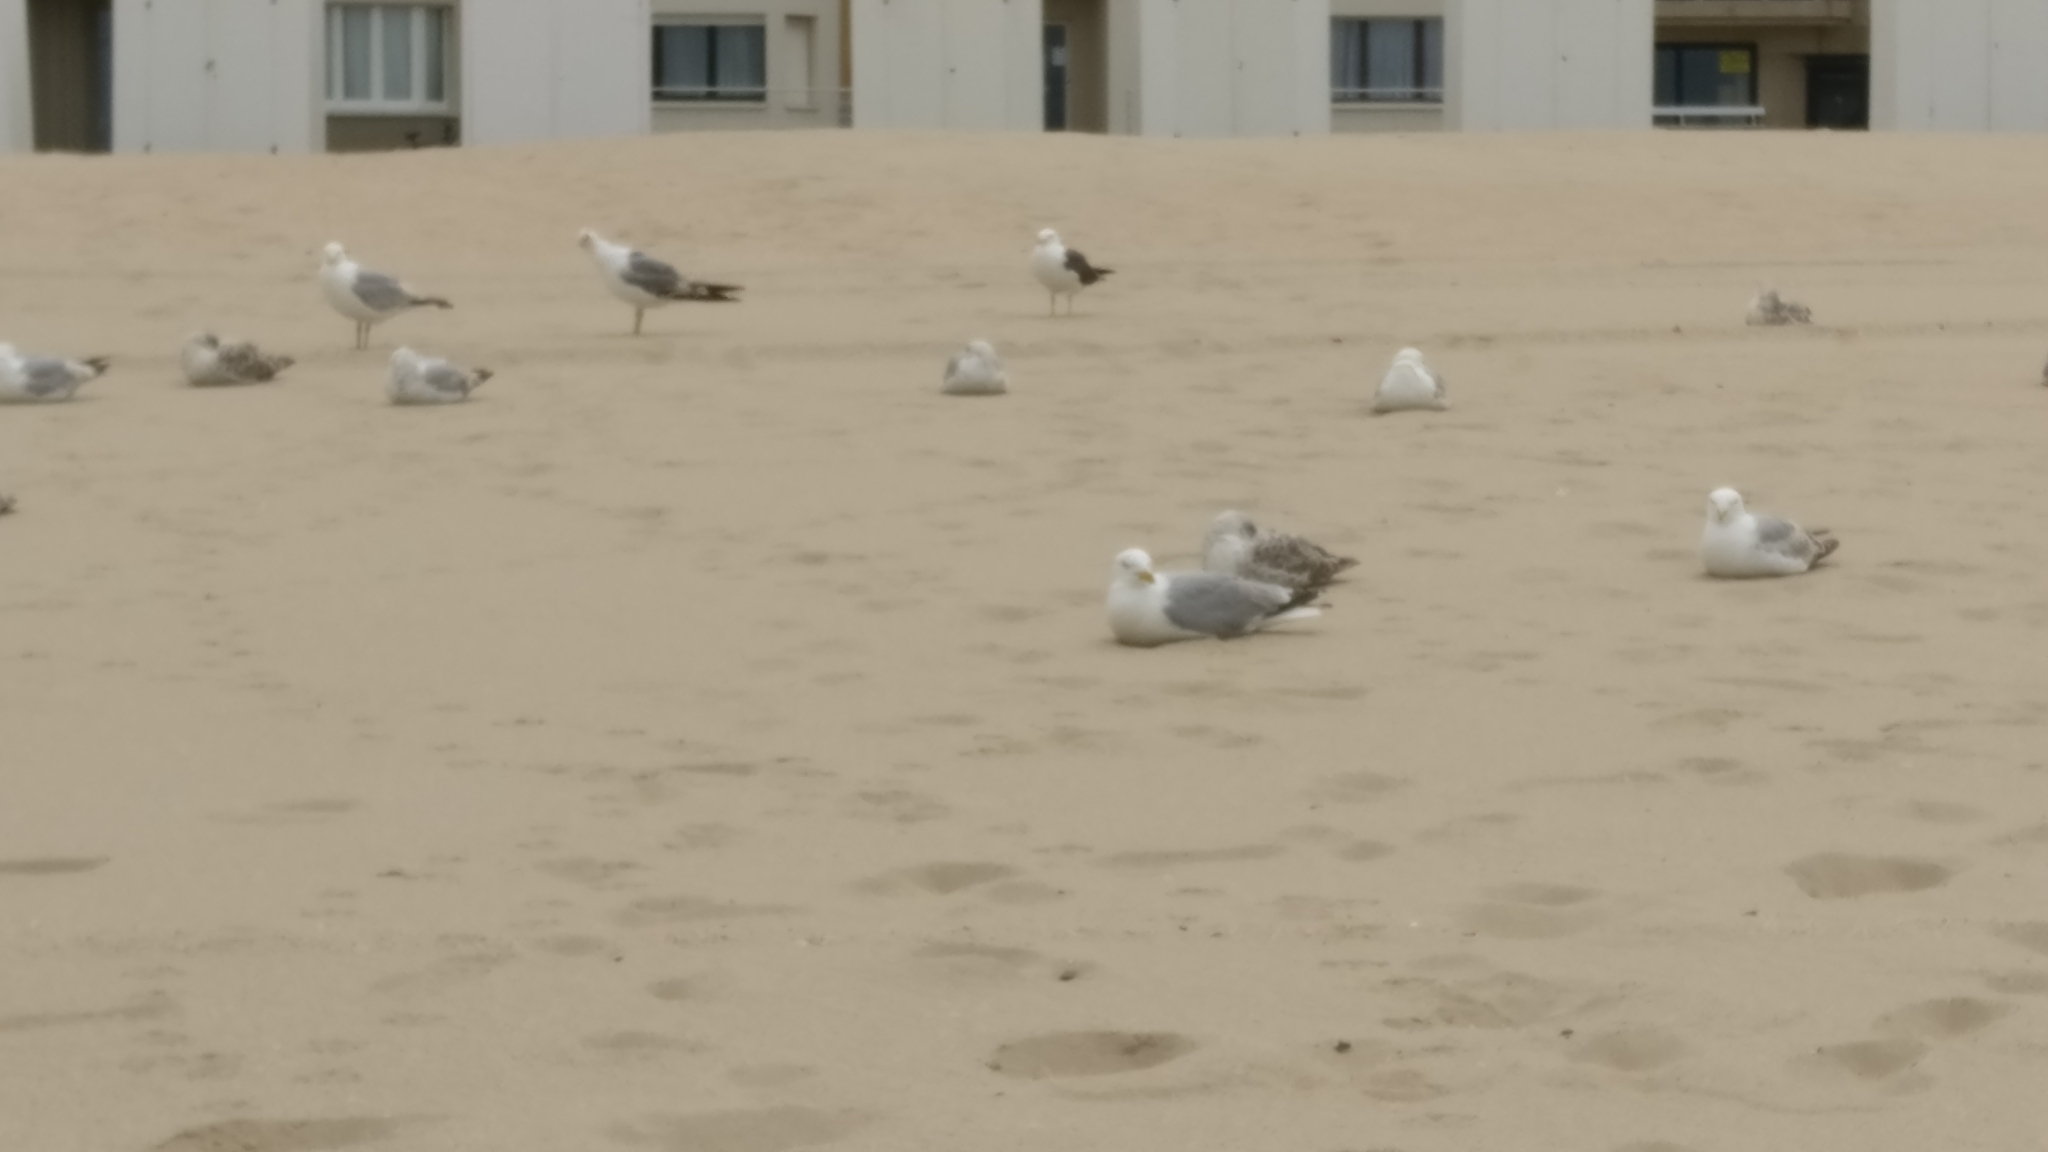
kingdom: Animalia
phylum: Chordata
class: Aves
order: Charadriiformes
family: Laridae
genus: Larus
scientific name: Larus argentatus
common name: Herring gull
